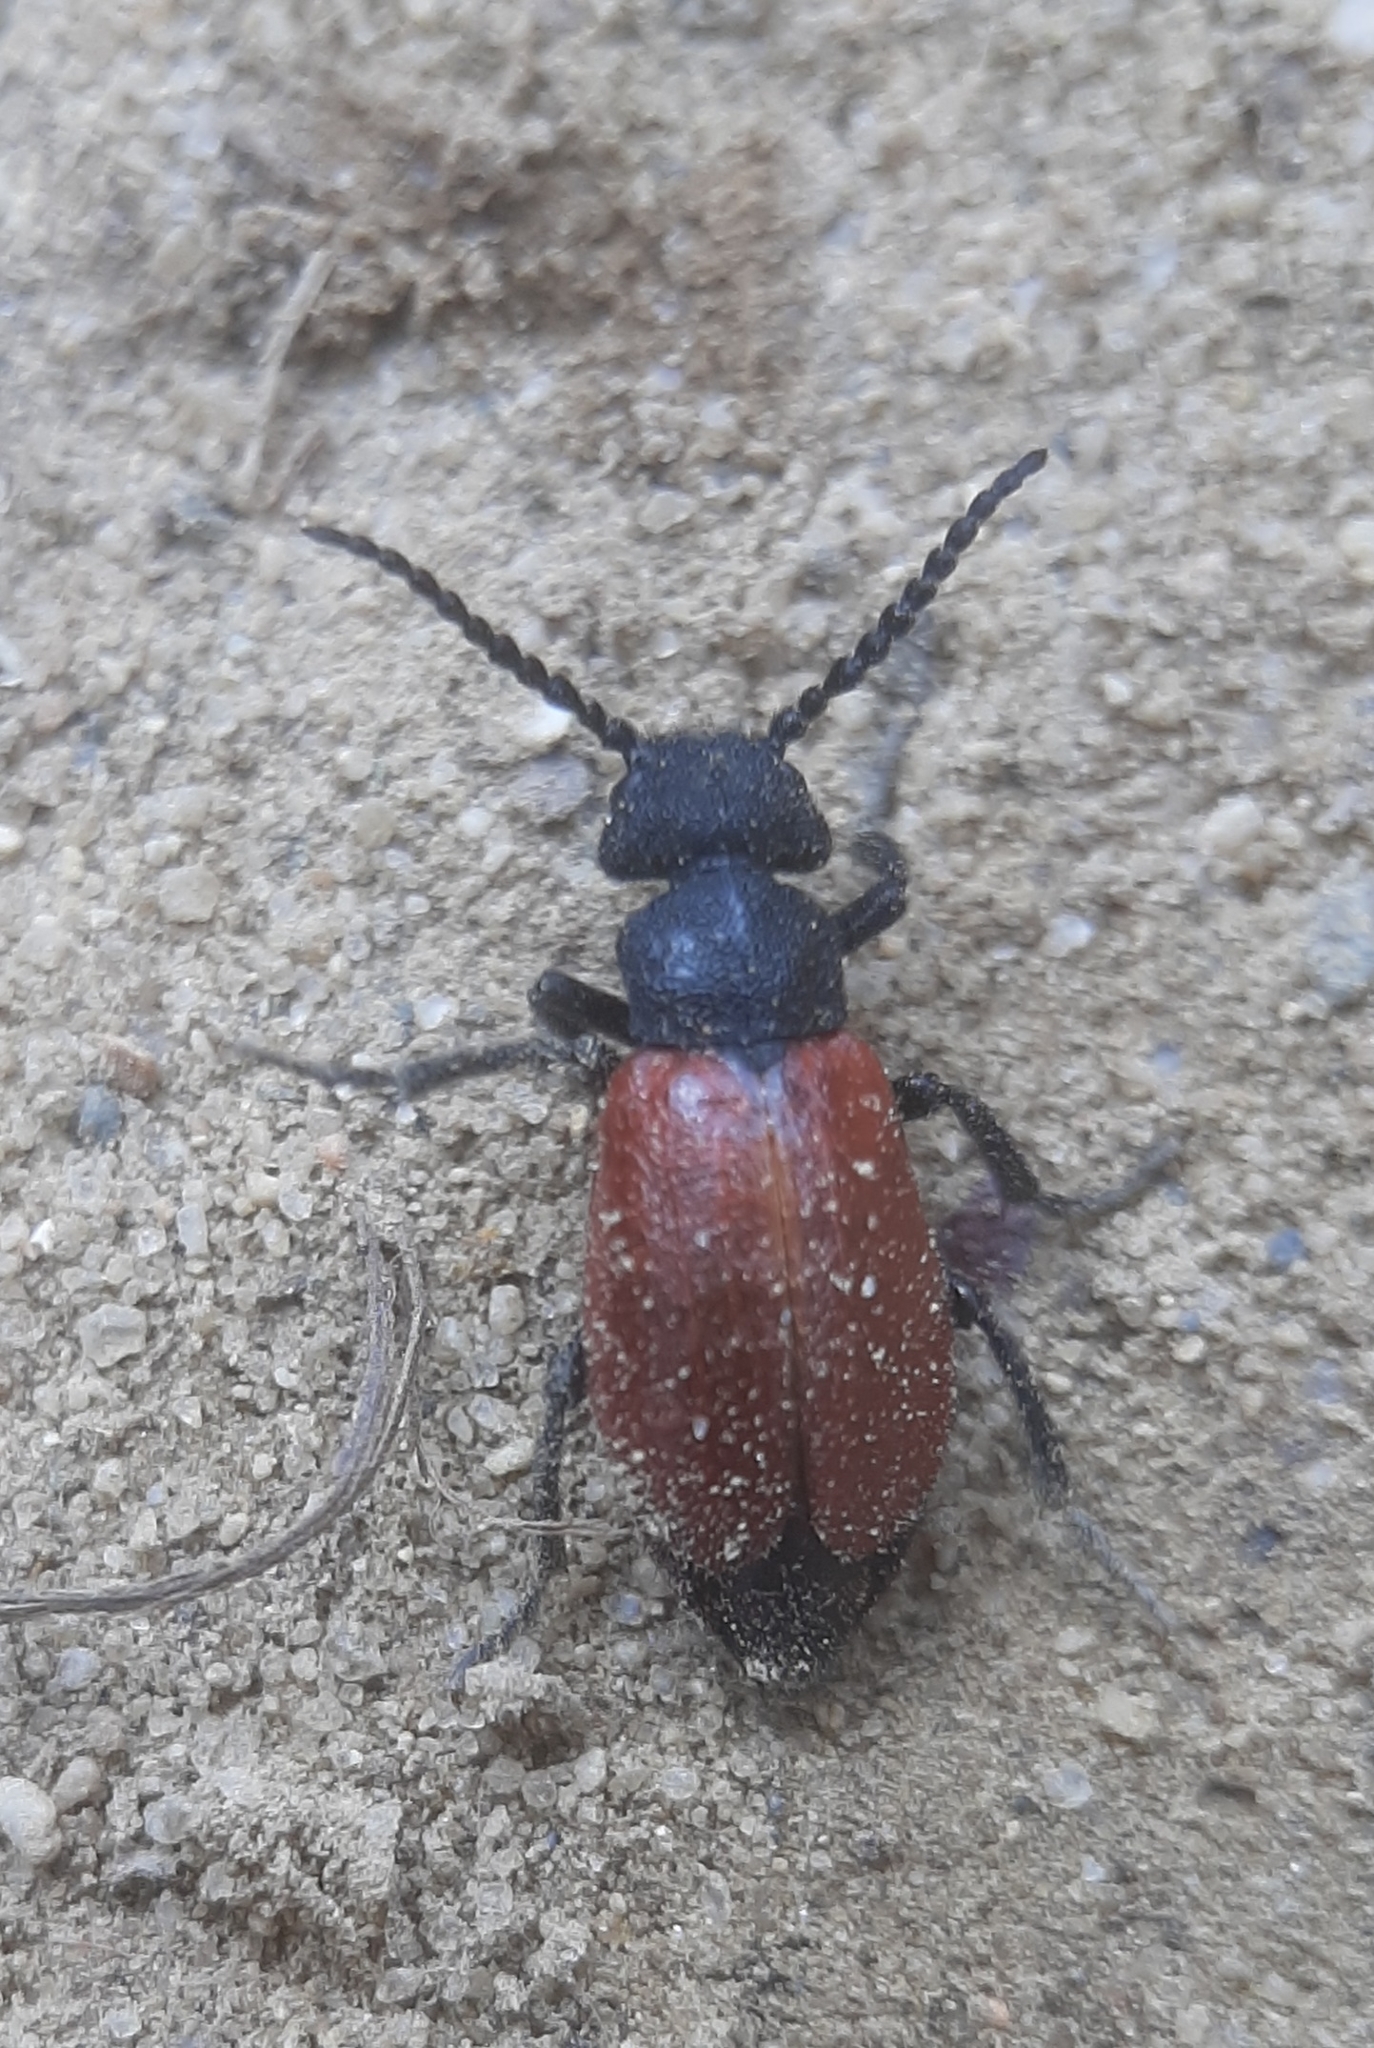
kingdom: Animalia
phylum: Arthropoda
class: Insecta
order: Coleoptera
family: Meloidae
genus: Tricrania
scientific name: Tricrania sanguinipennis
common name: Blood-winged blister beetle
